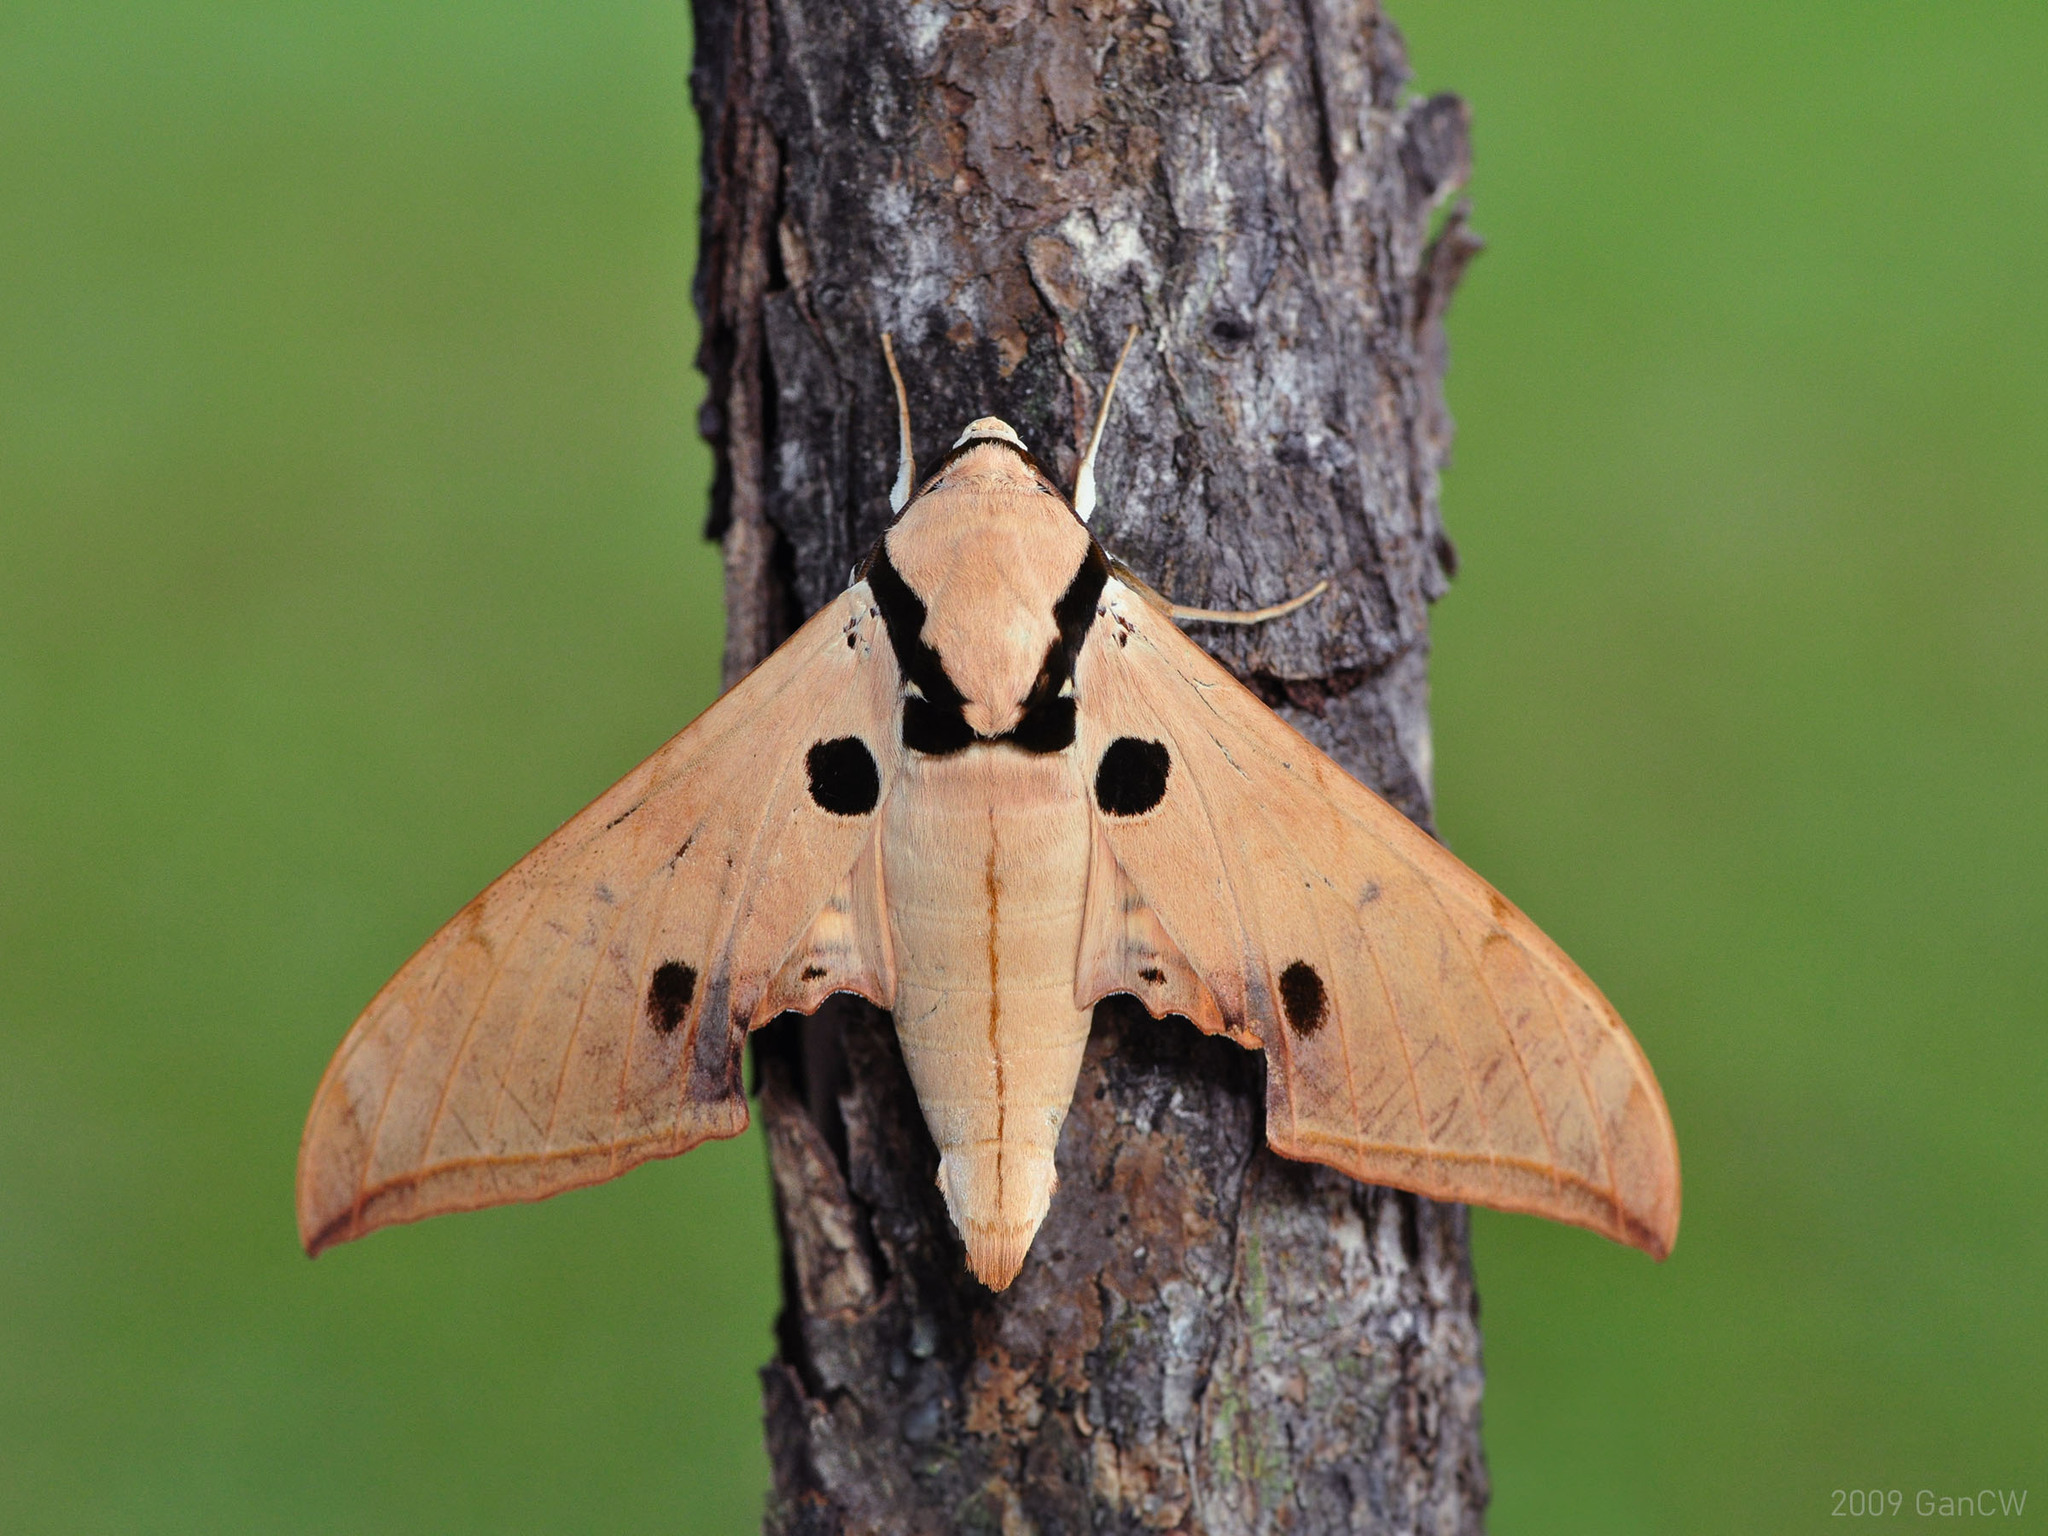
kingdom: Animalia
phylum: Arthropoda
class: Insecta
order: Lepidoptera
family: Sphingidae
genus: Ambulyx
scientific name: Ambulyx obliterata
